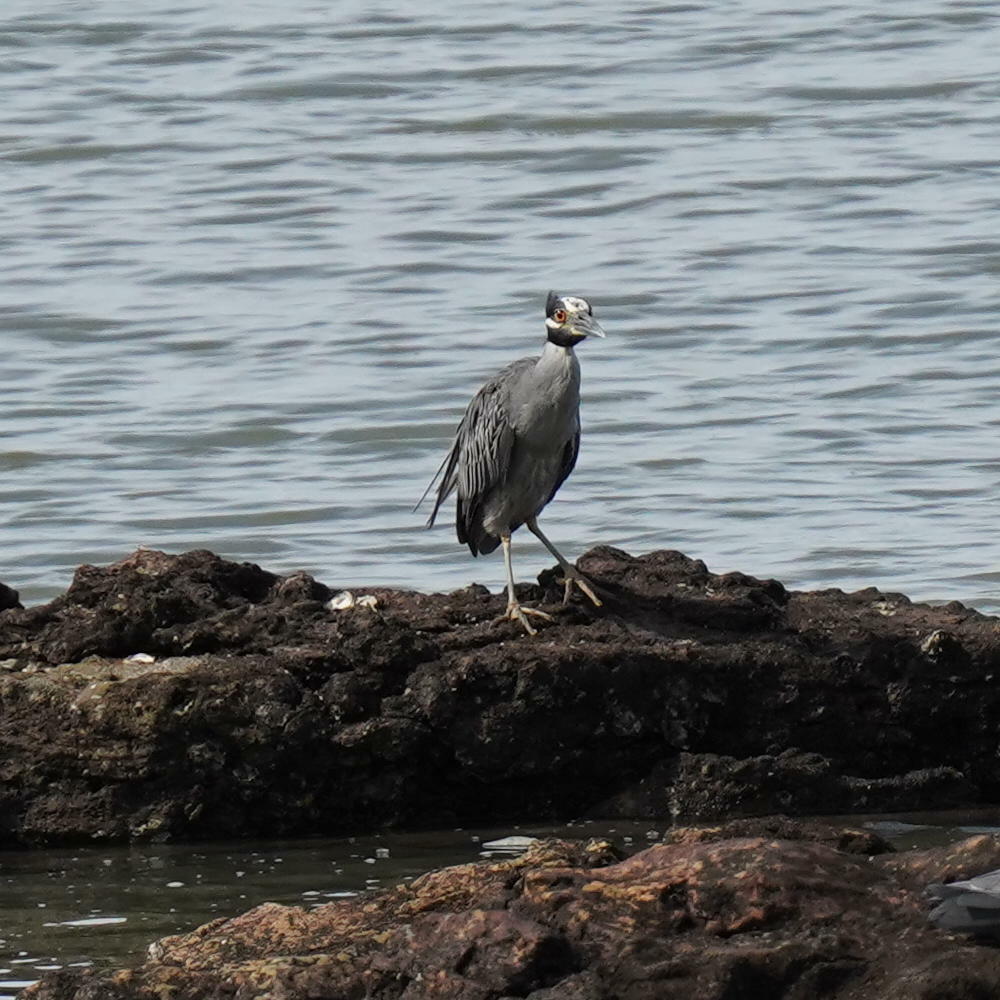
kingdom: Animalia
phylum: Chordata
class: Aves
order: Pelecaniformes
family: Ardeidae
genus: Nyctanassa
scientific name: Nyctanassa violacea
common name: Yellow-crowned night heron
